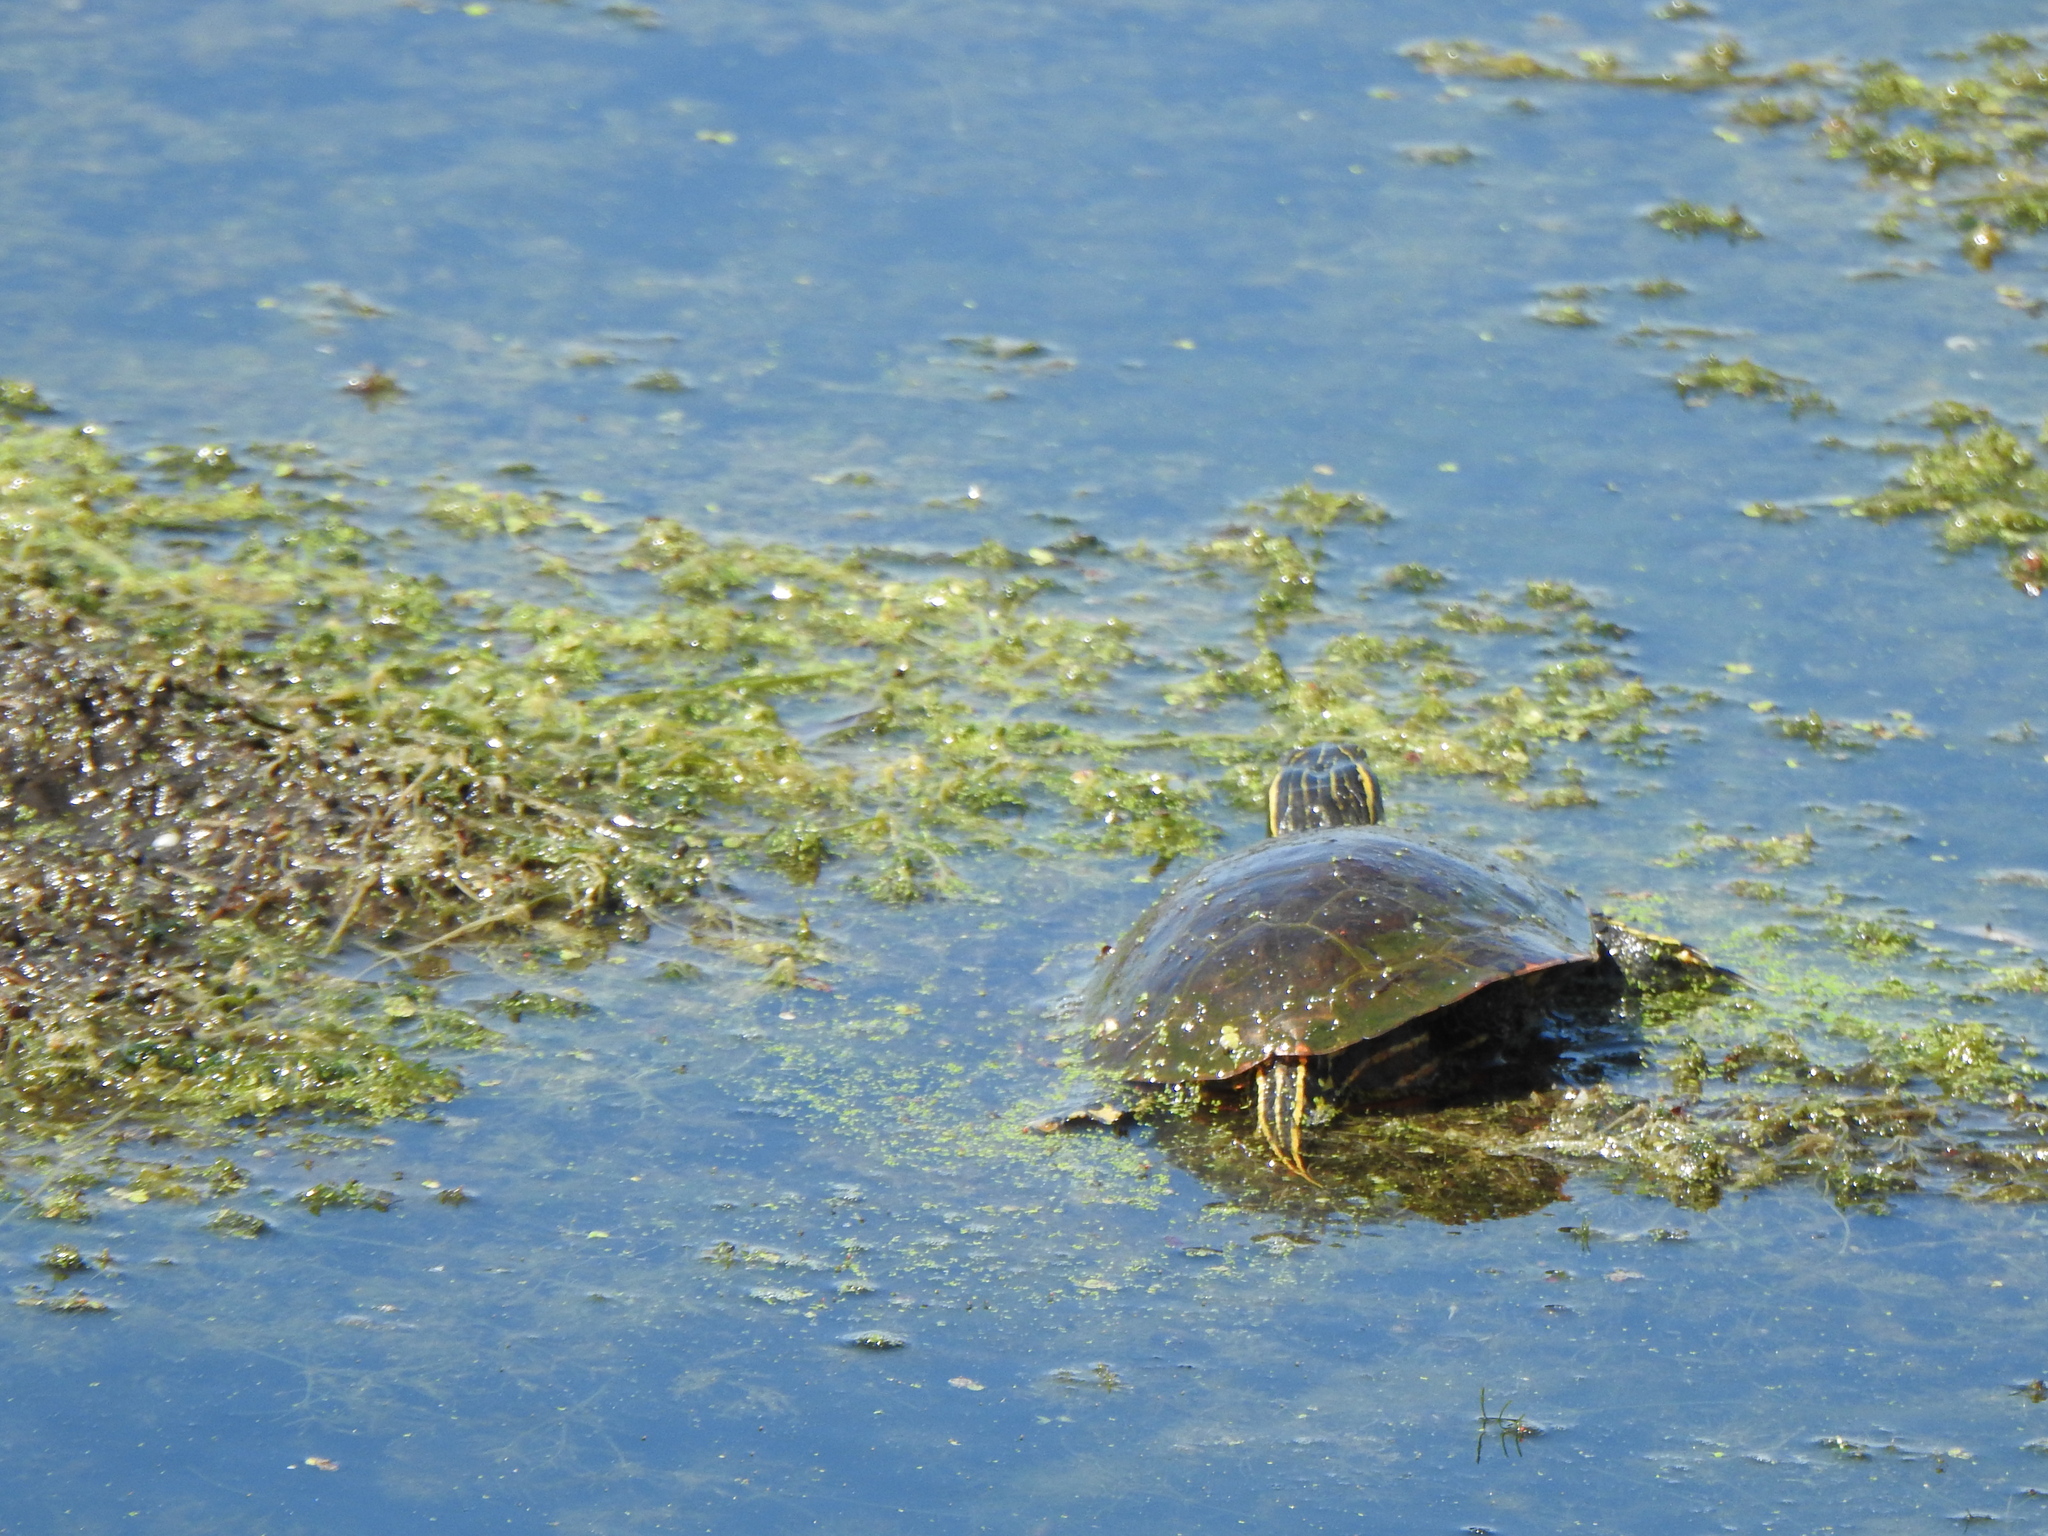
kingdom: Animalia
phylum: Chordata
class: Testudines
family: Emydidae
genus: Chrysemys
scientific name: Chrysemys picta
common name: Painted turtle
